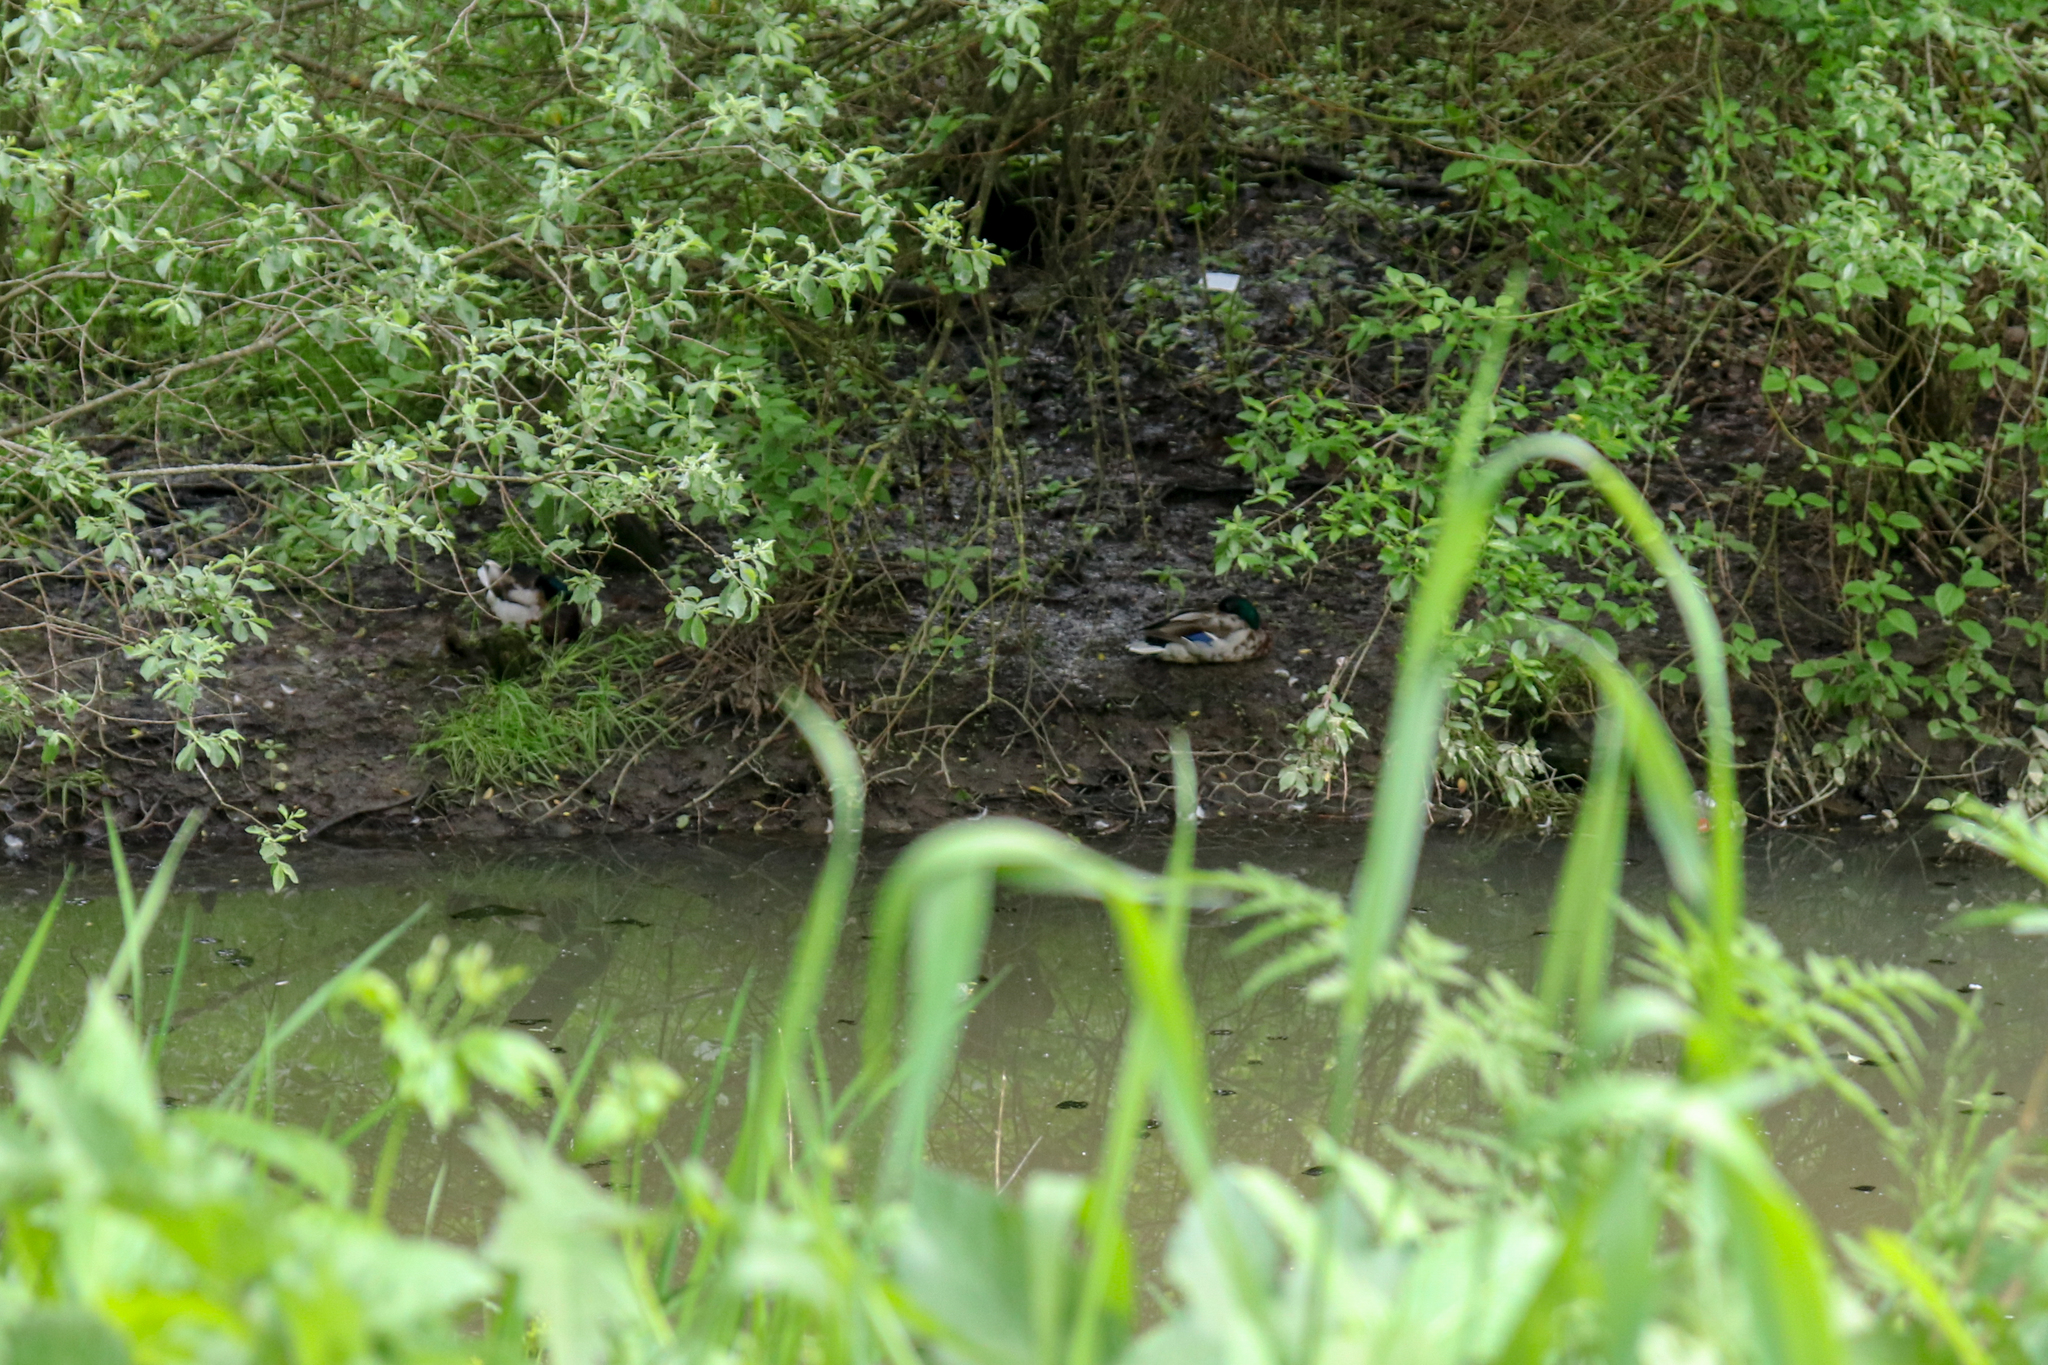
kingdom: Animalia
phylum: Chordata
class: Aves
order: Anseriformes
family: Anatidae
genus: Anas
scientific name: Anas platyrhynchos
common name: Mallard
